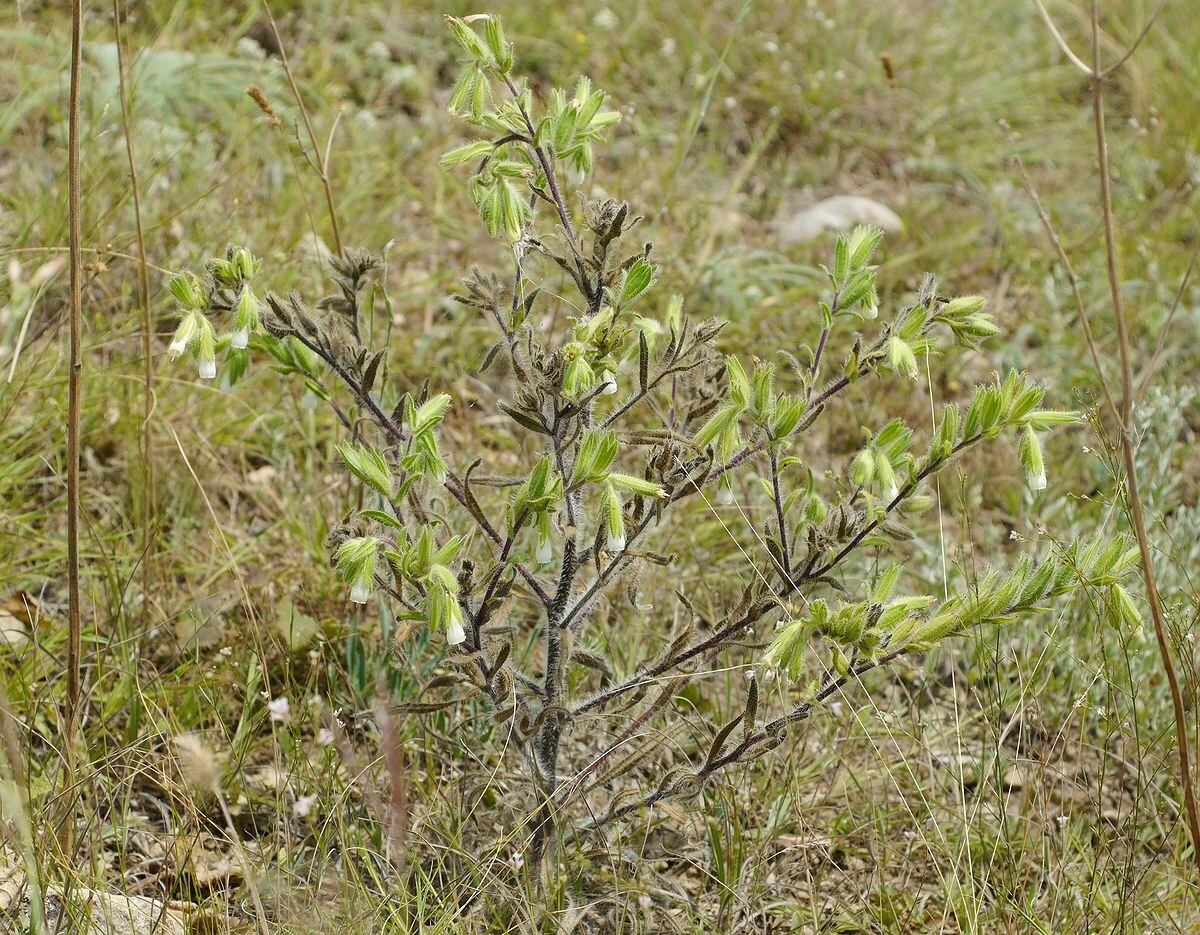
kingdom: Plantae
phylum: Tracheophyta
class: Magnoliopsida
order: Boraginales
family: Boraginaceae
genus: Onosma
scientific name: Onosma visianii
